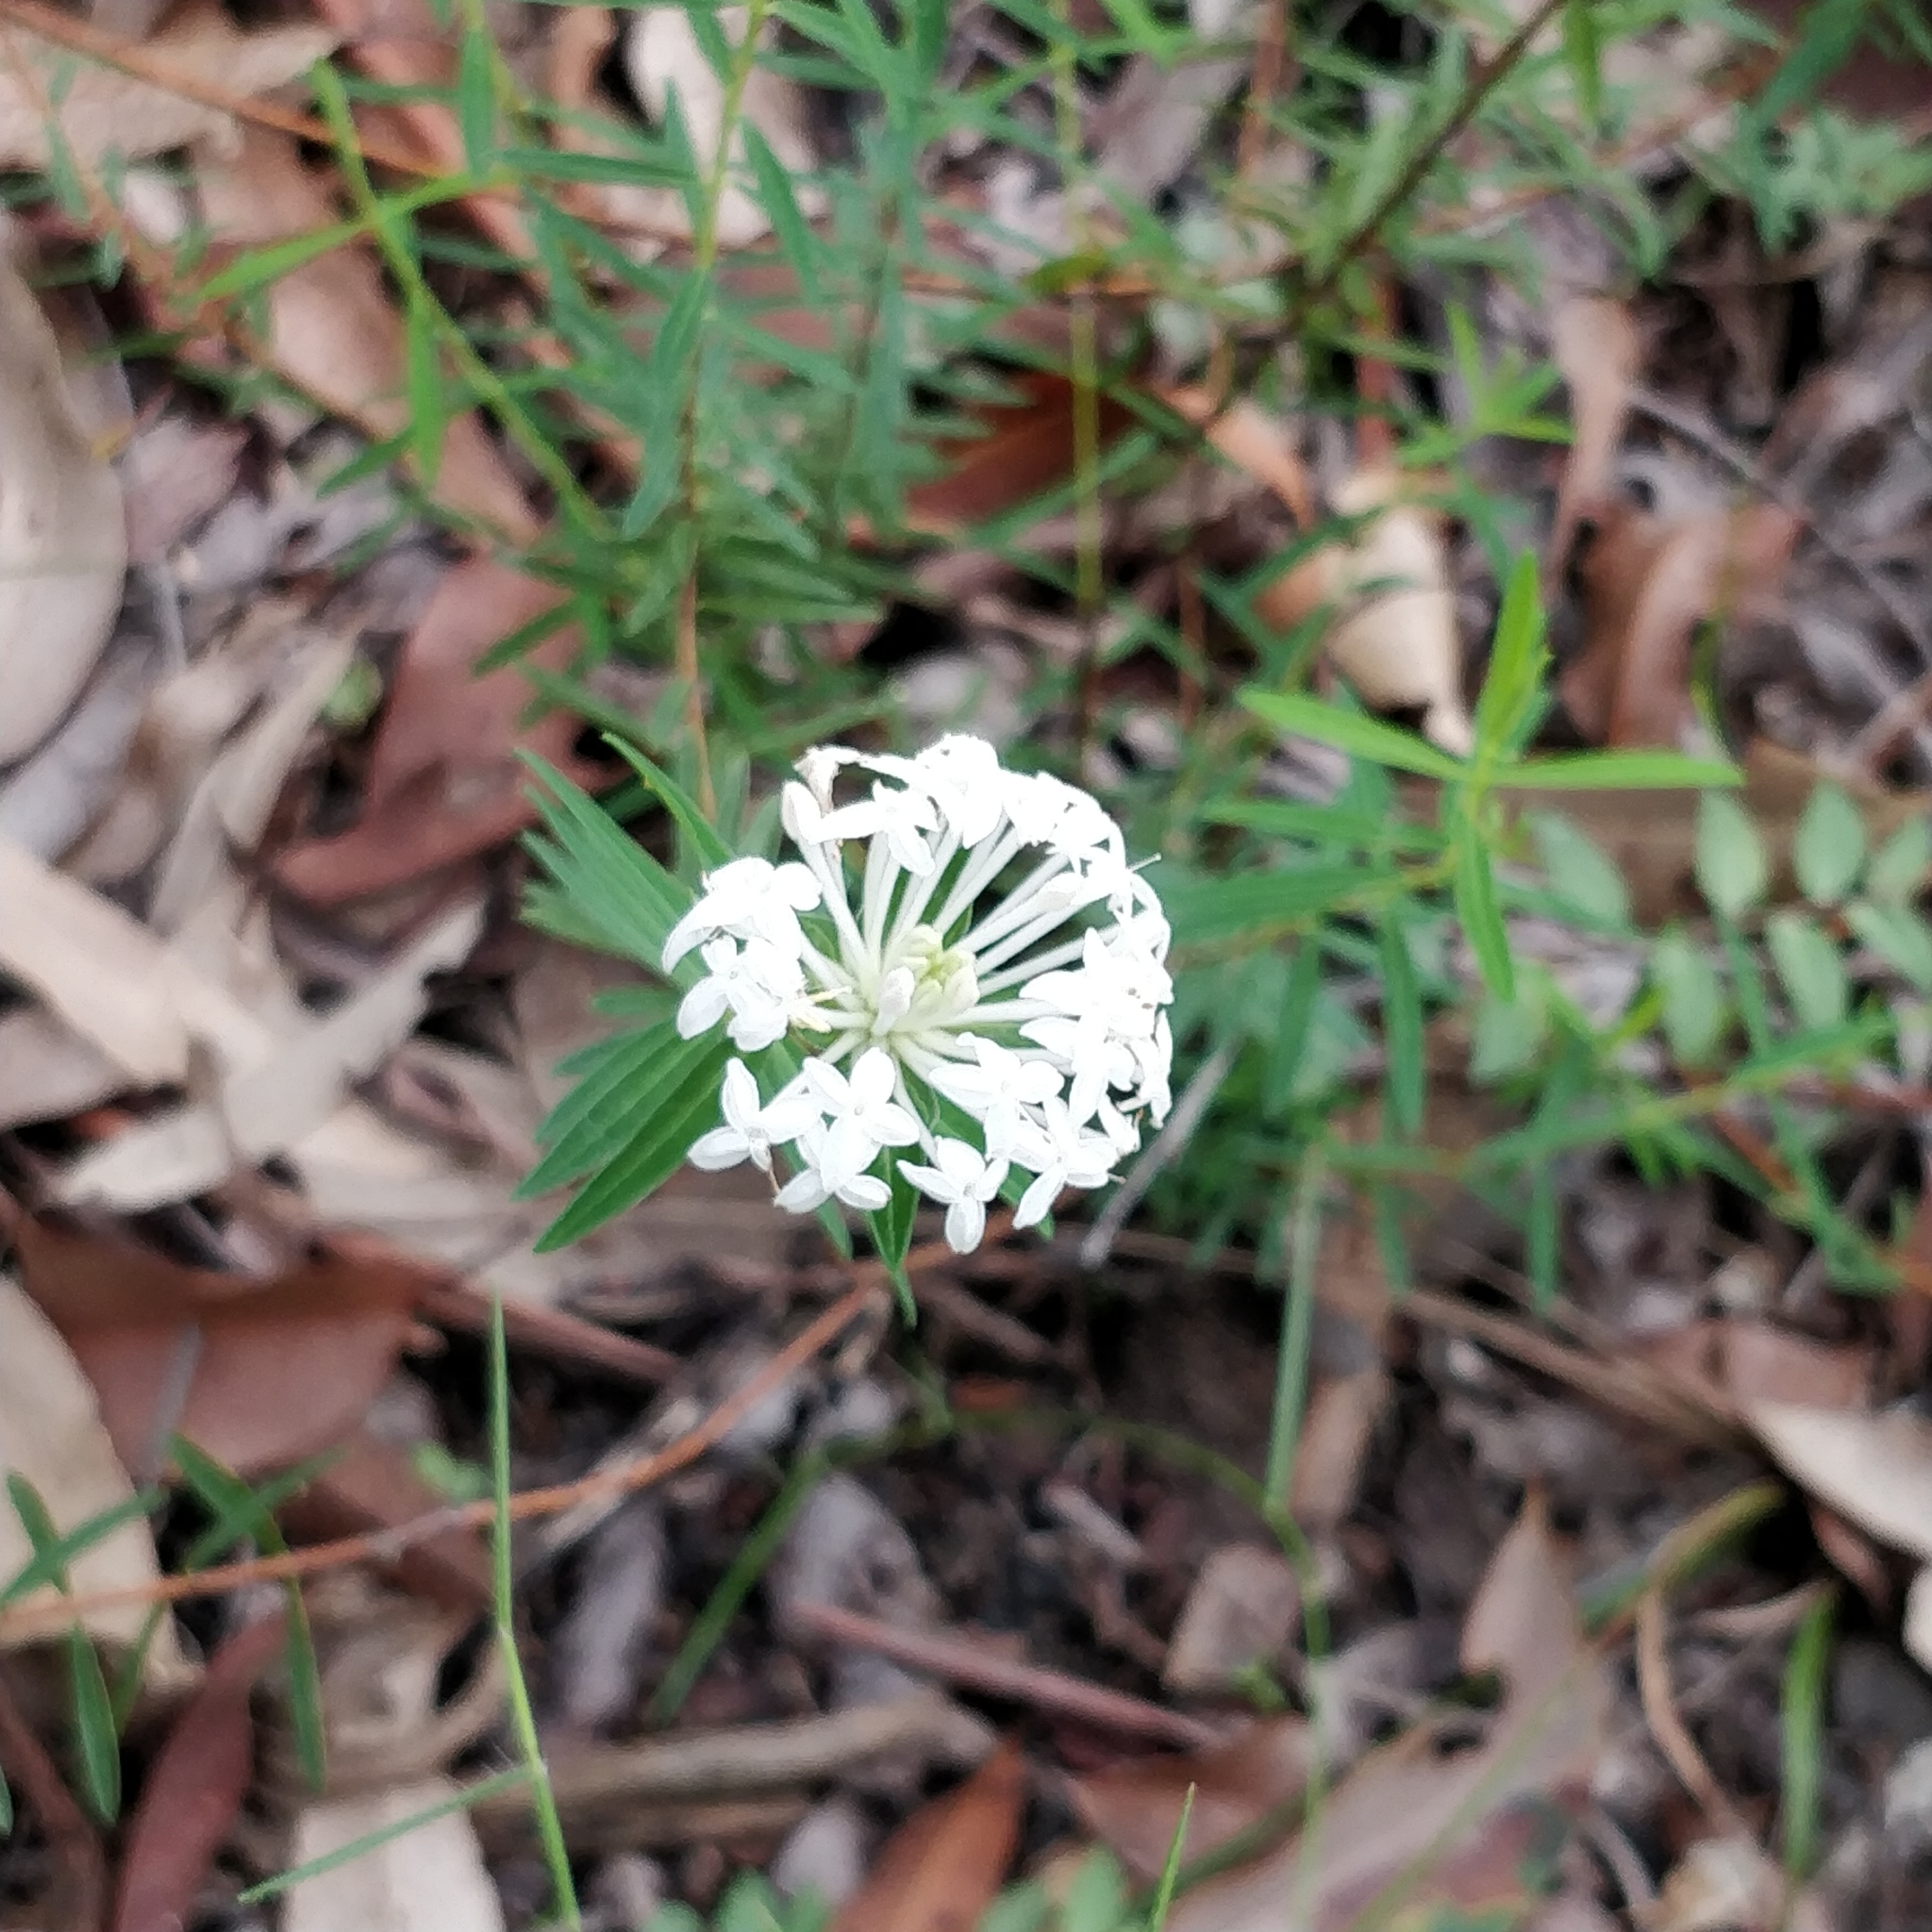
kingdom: Plantae
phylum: Tracheophyta
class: Magnoliopsida
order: Malvales
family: Thymelaeaceae
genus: Pimelea
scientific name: Pimelea linifolia
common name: Queen-of-the-bush
